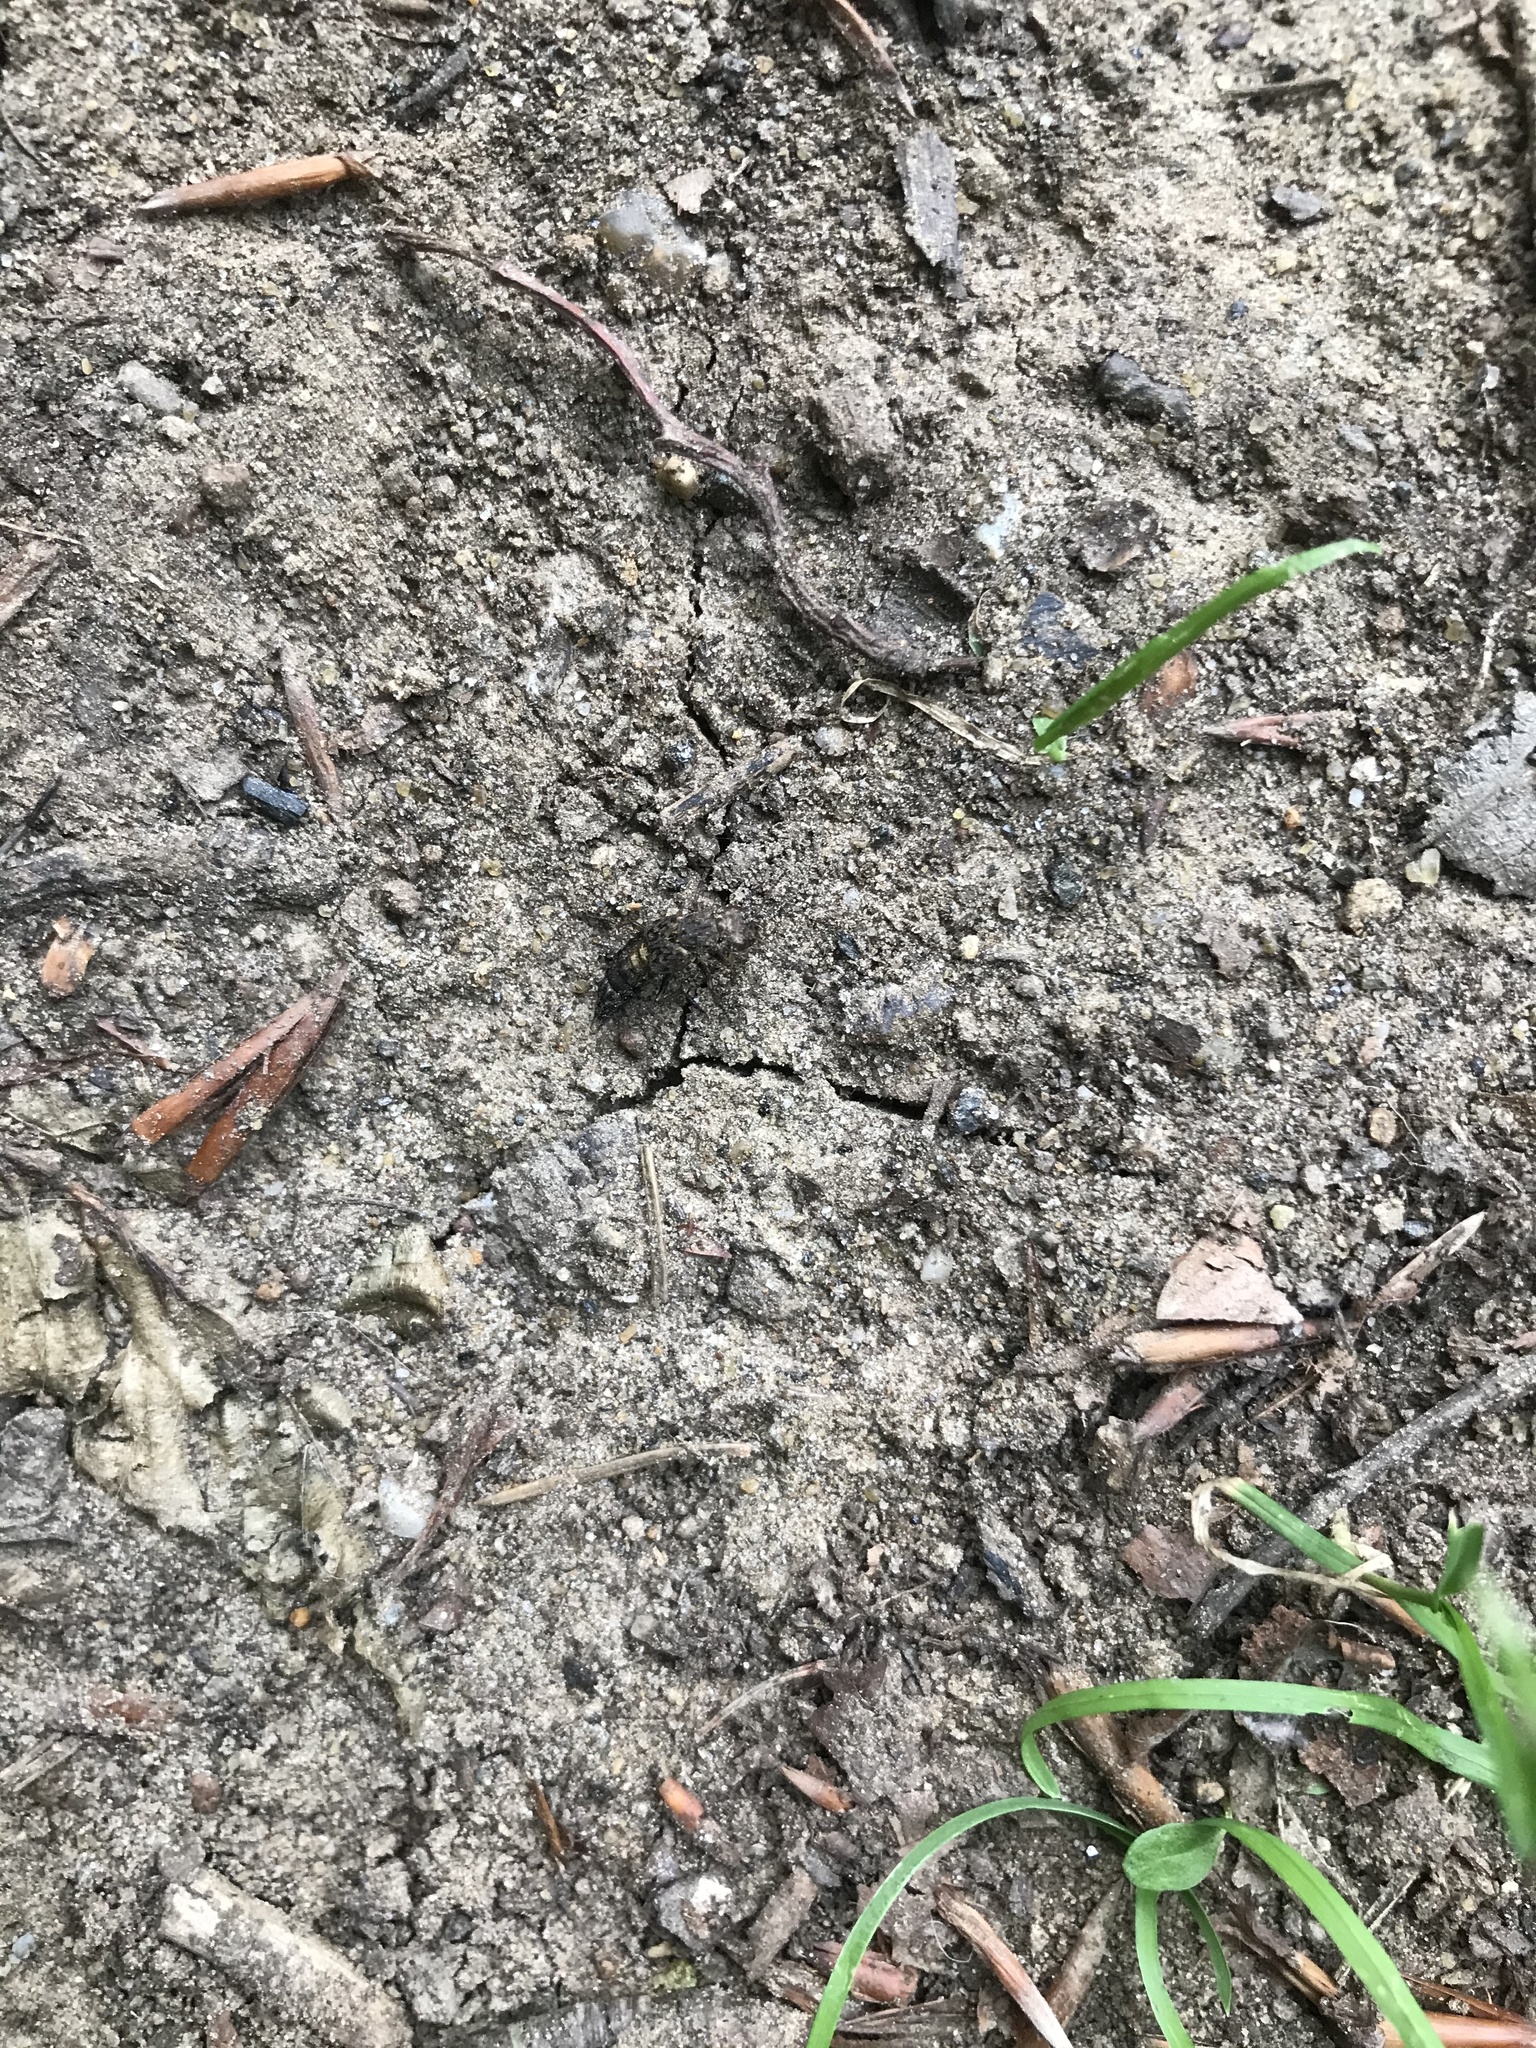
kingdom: Animalia
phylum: Arthropoda
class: Insecta
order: Coleoptera
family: Staphylinidae
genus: Ontholestes
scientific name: Ontholestes murinus
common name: Staph beetle
